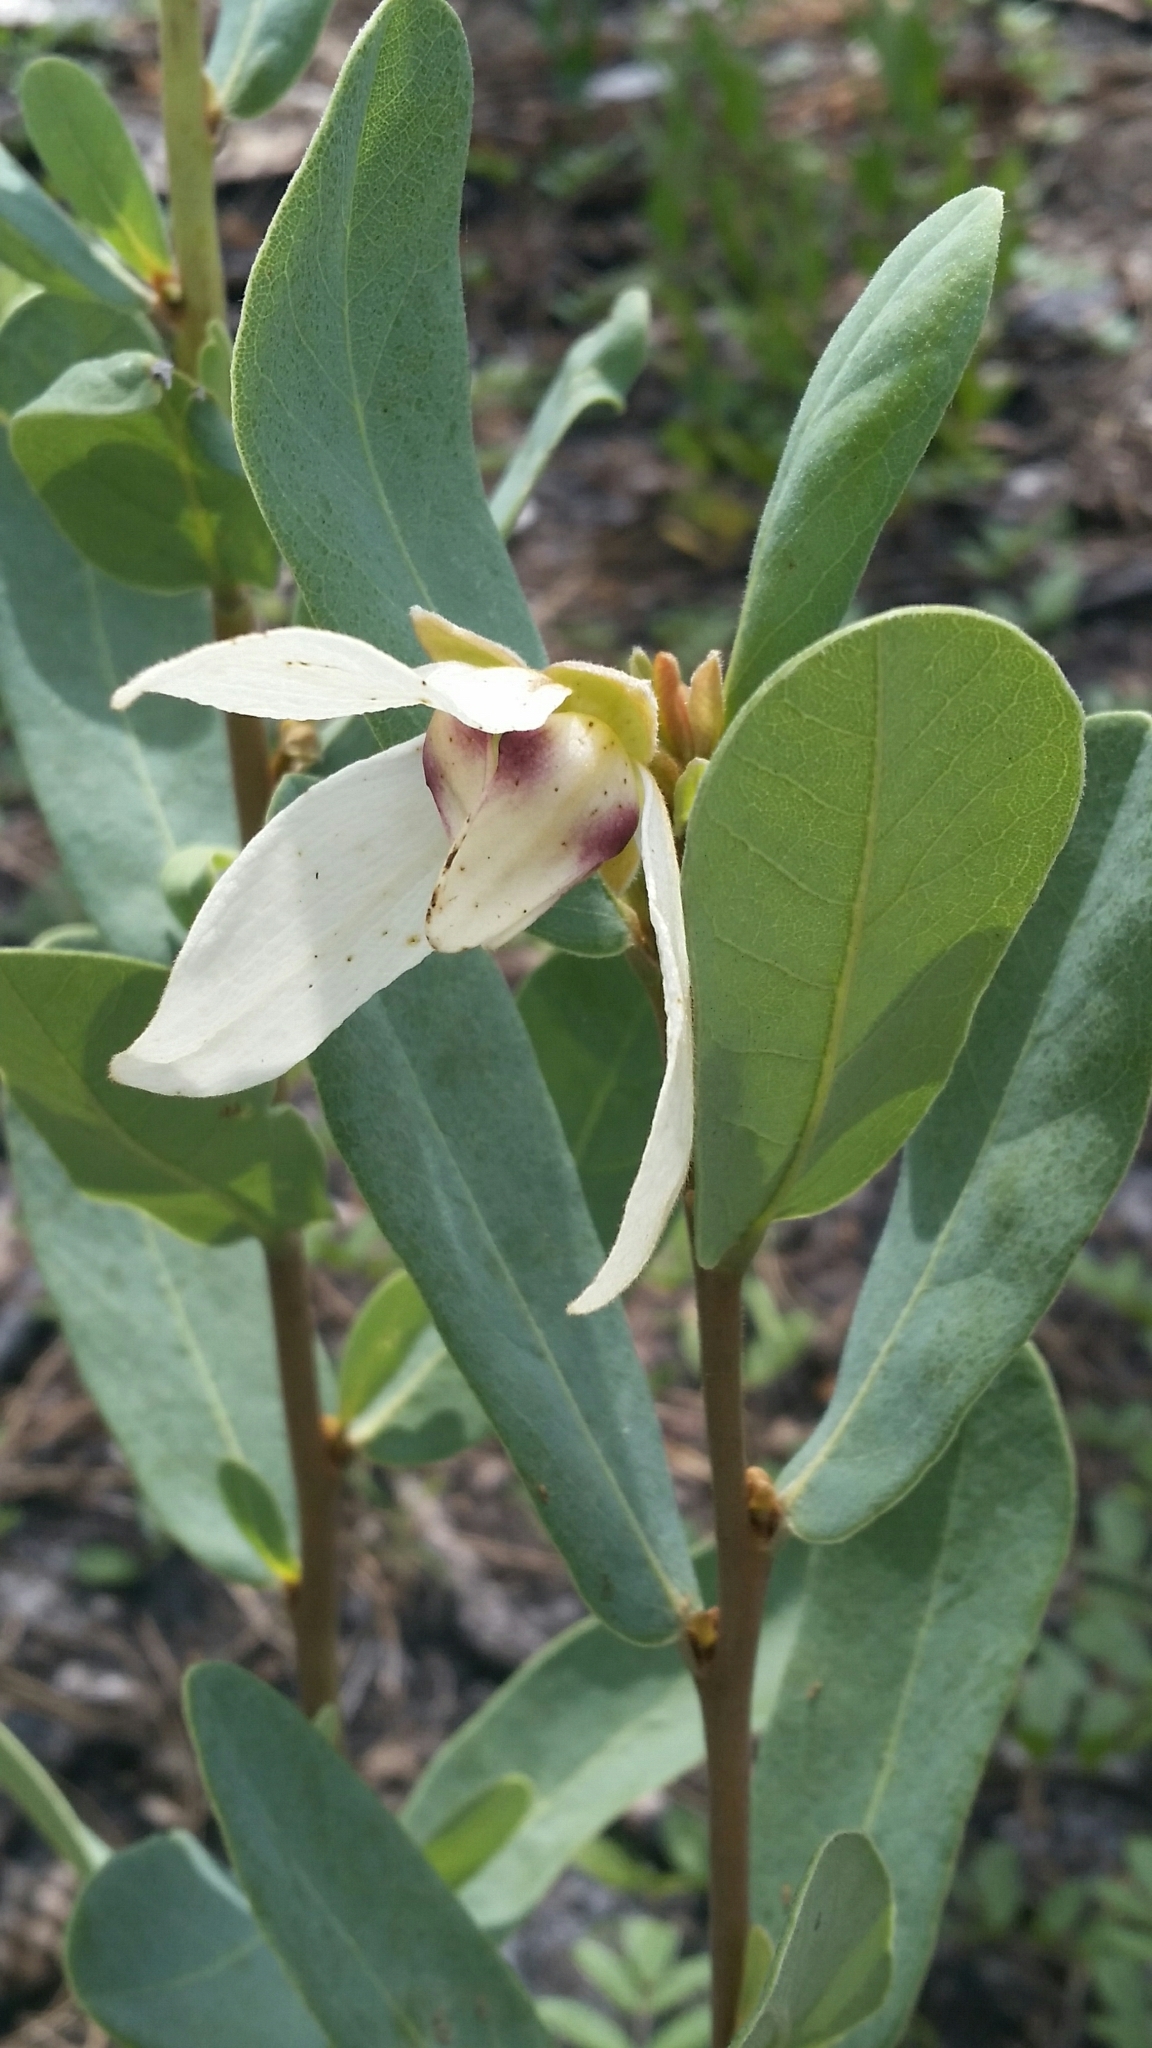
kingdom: Plantae
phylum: Tracheophyta
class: Magnoliopsida
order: Magnoliales
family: Annonaceae
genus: Asimina
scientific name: Asimina reticulata
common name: Flag pawpaw
